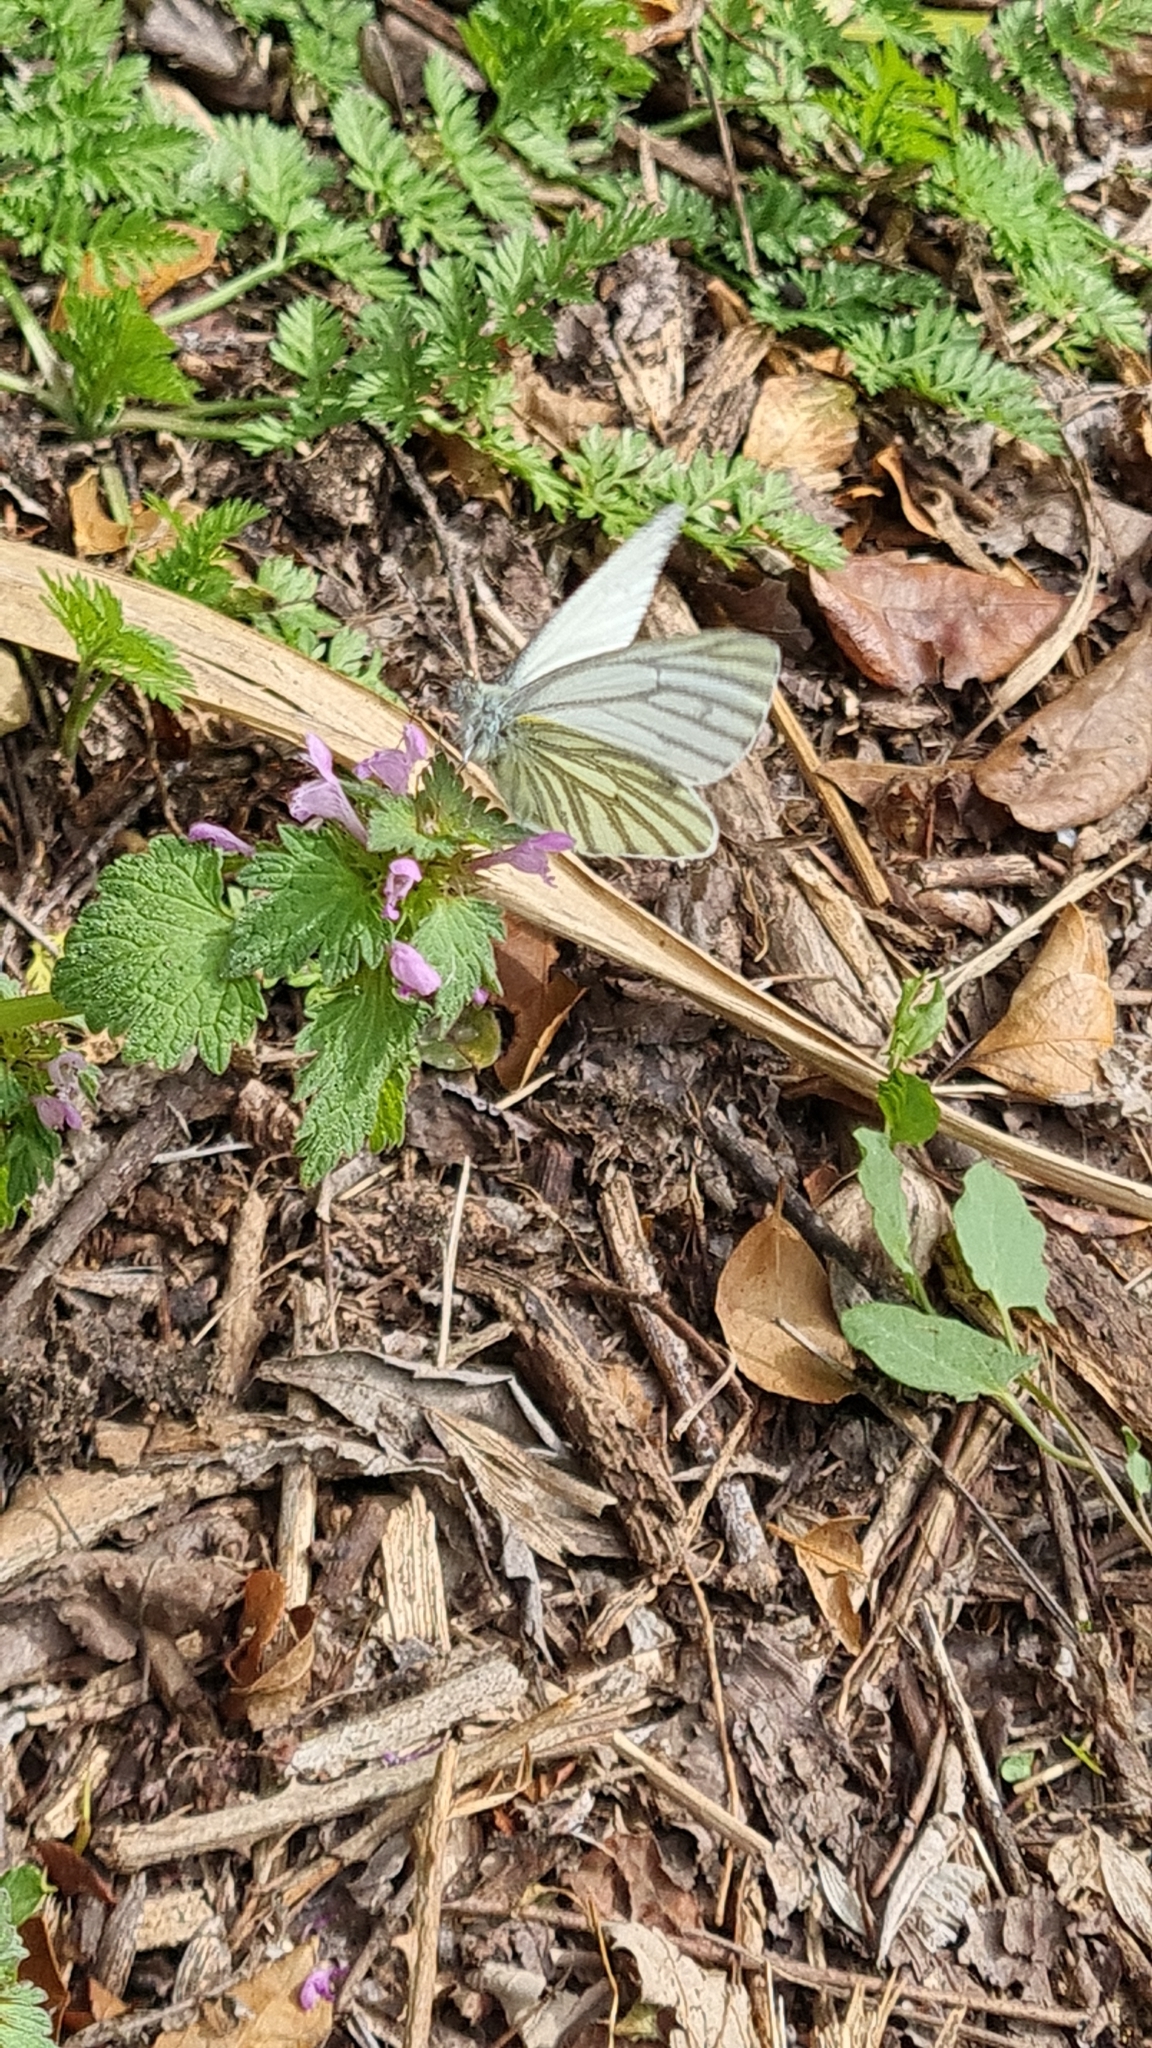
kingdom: Animalia
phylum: Arthropoda
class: Insecta
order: Lepidoptera
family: Pieridae
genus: Pieris
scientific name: Pieris napi
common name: Green-veined white
